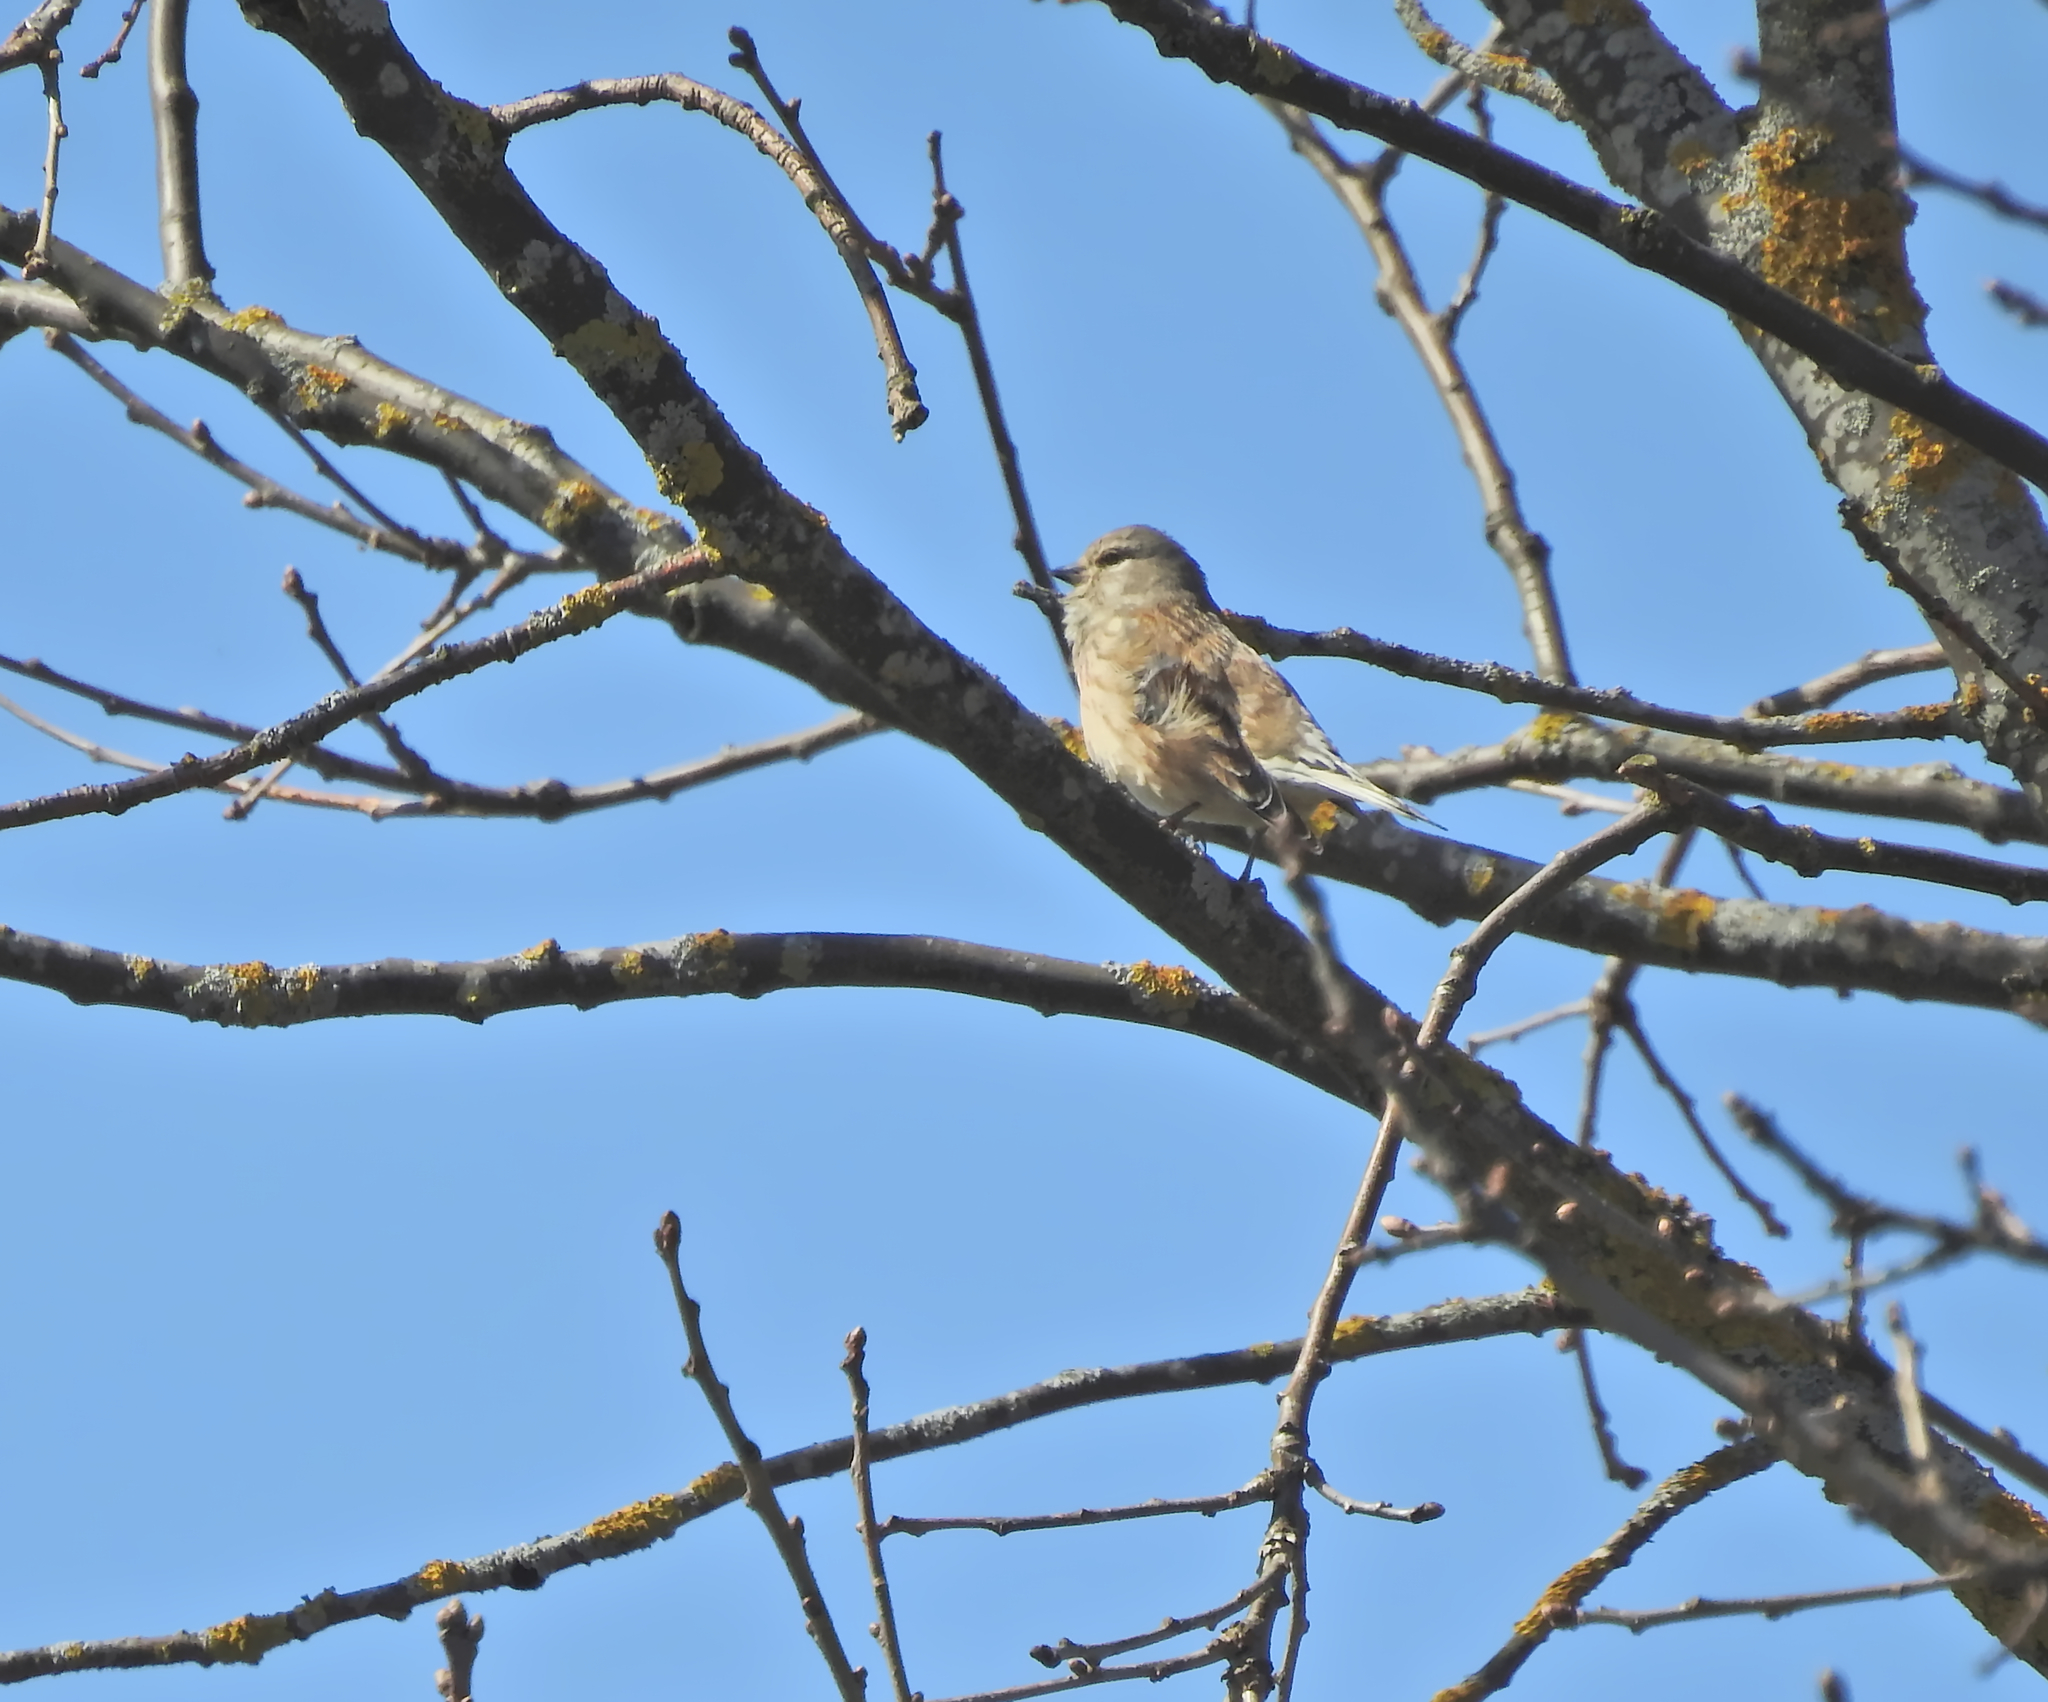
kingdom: Animalia
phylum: Chordata
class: Aves
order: Passeriformes
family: Fringillidae
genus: Linaria
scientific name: Linaria cannabina
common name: Common linnet
